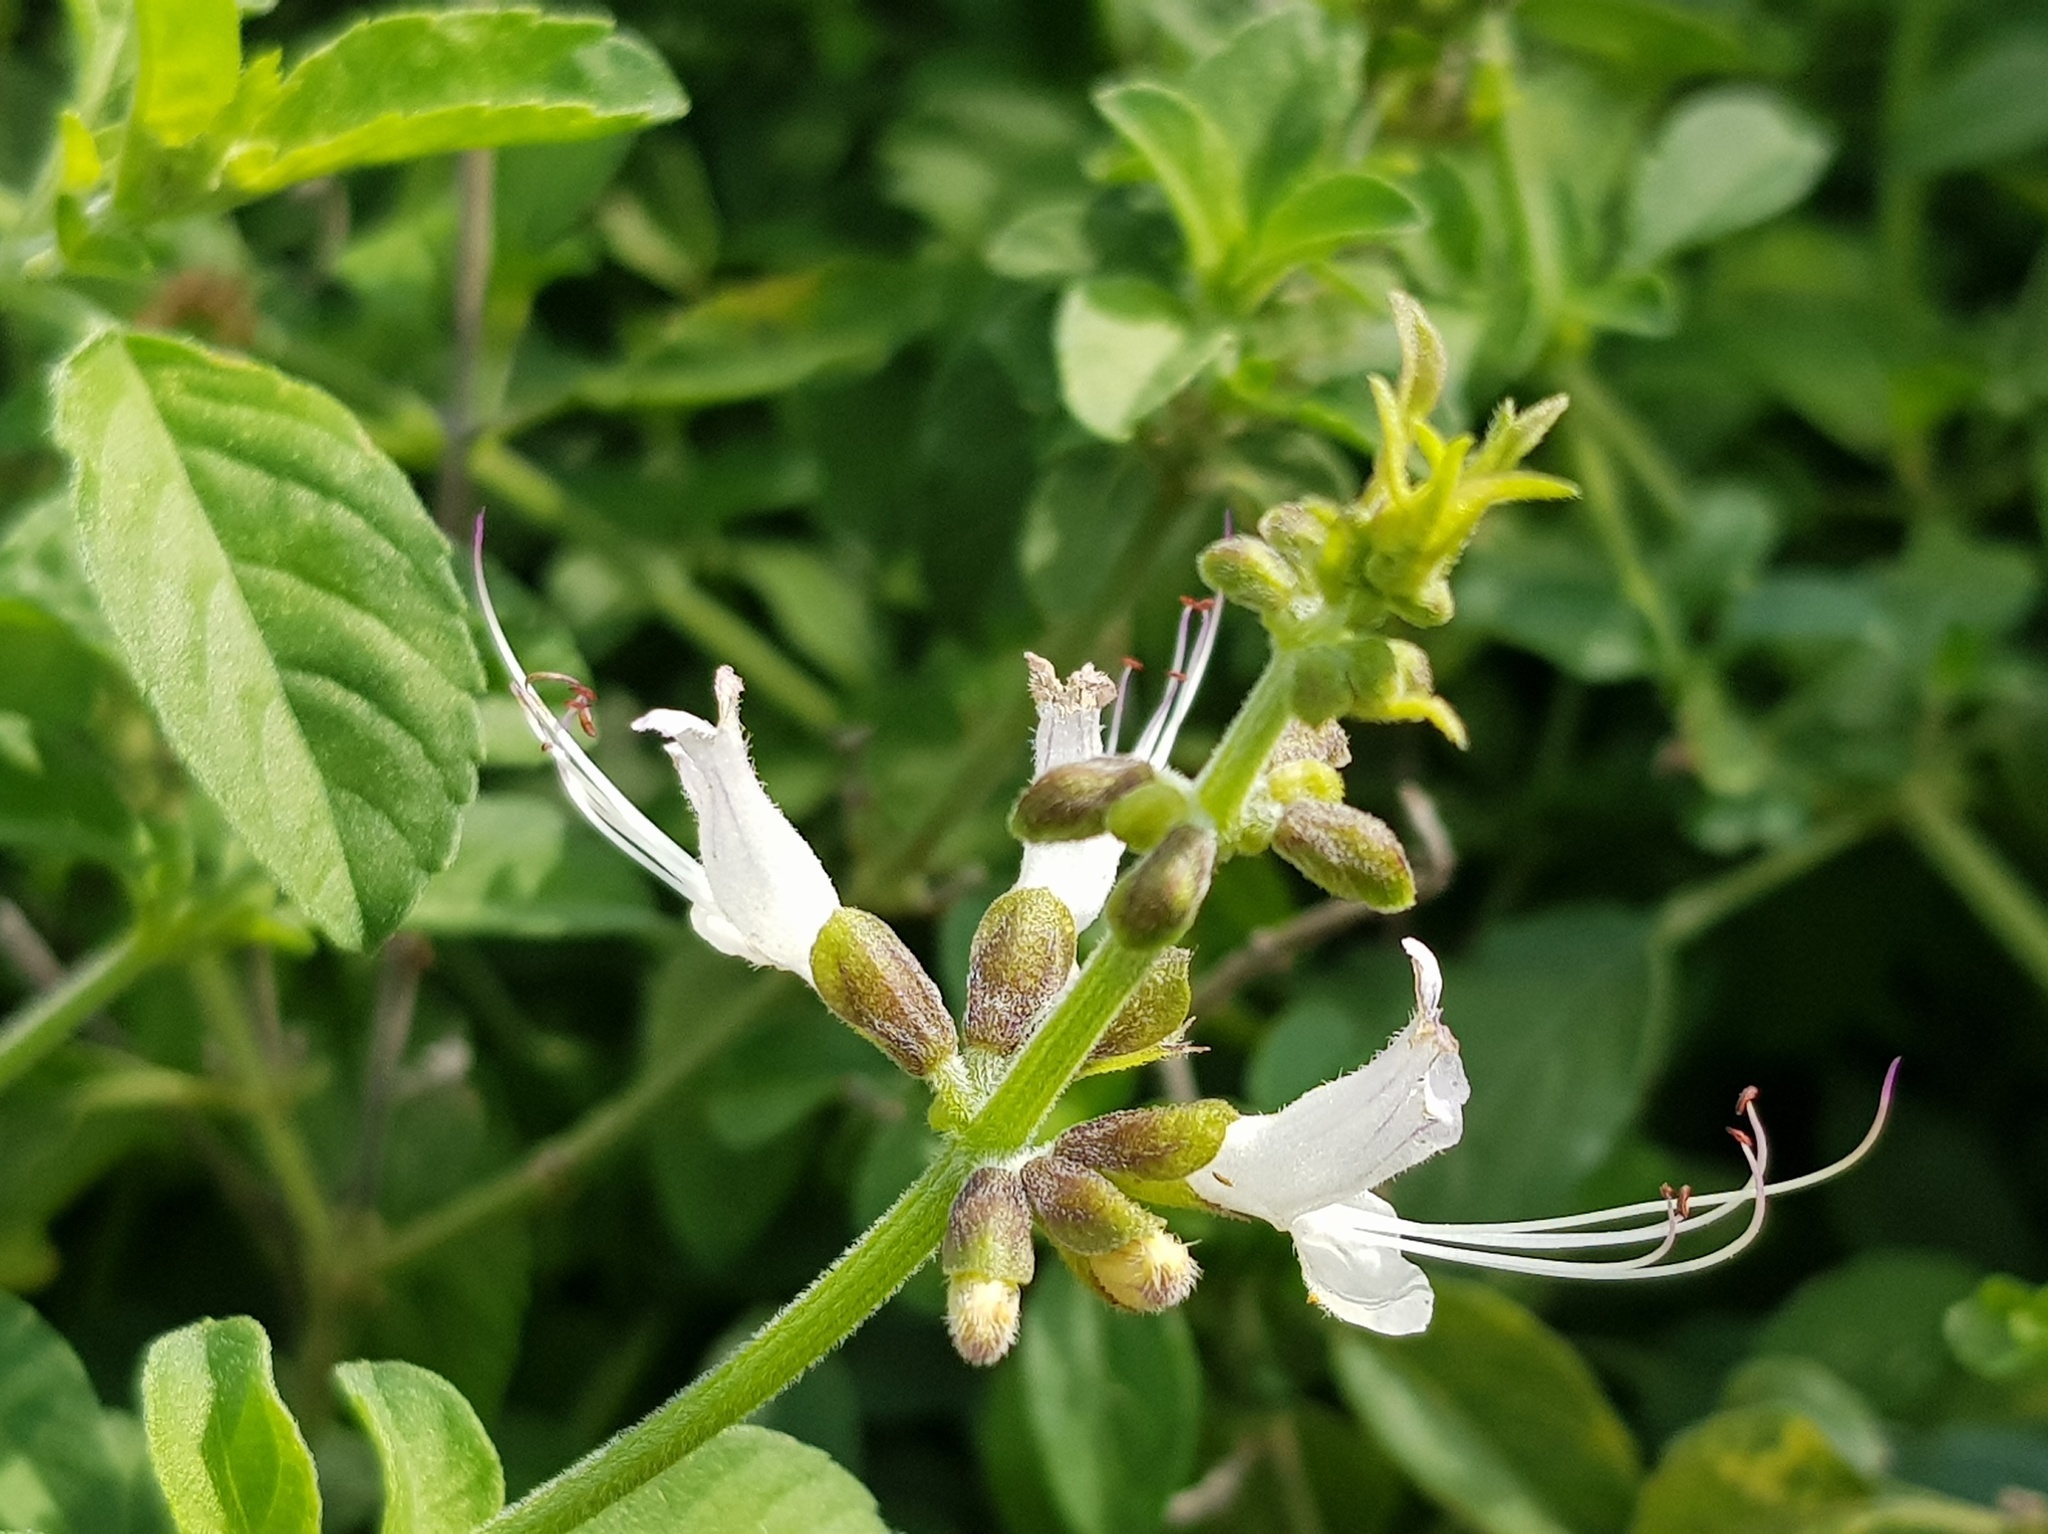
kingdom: Plantae
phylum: Tracheophyta
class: Magnoliopsida
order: Lamiales
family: Lamiaceae
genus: Ocimum
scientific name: Ocimum basilicum
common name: Sweet basil
